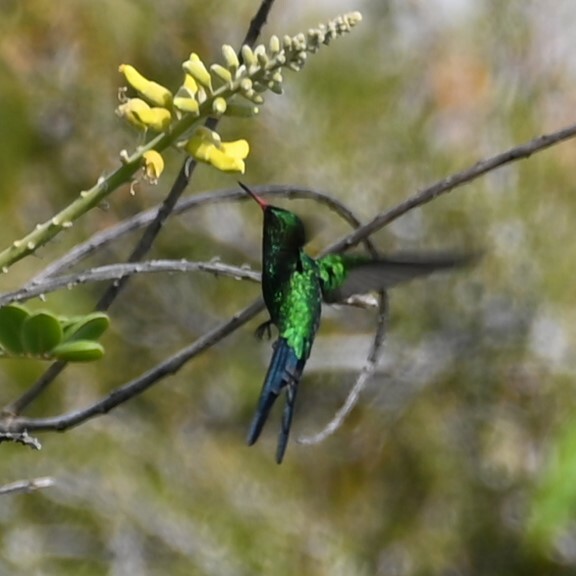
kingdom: Animalia
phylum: Chordata
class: Aves
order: Apodiformes
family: Trochilidae
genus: Cynanthus
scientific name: Cynanthus forficatus
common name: Cozumel emerald
